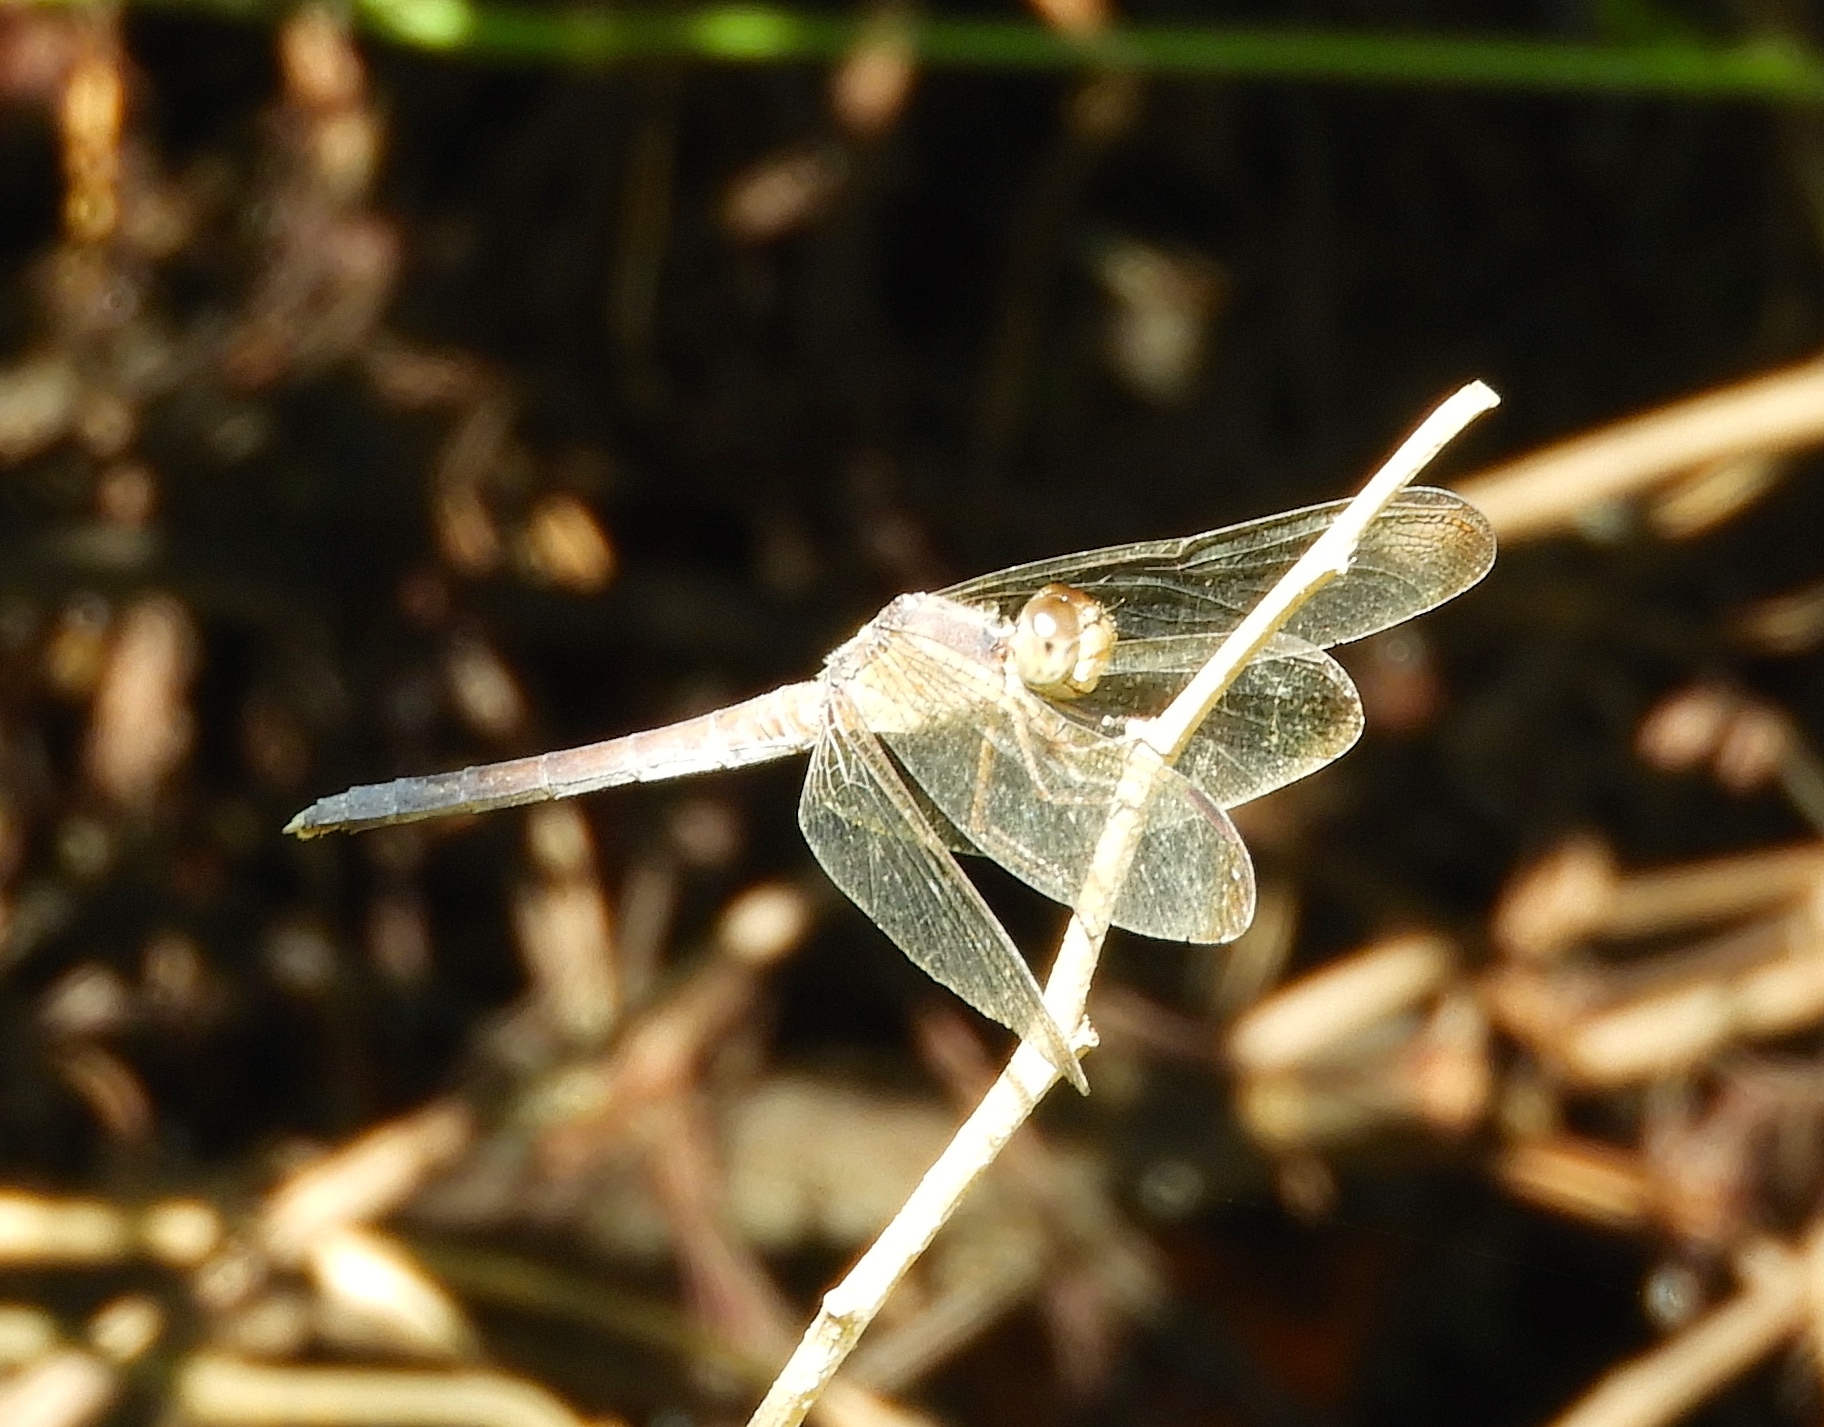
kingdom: Animalia
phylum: Arthropoda
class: Insecta
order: Odonata
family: Libellulidae
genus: Erythrodiplax
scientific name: Erythrodiplax funerea
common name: Black-winged dragonlet
